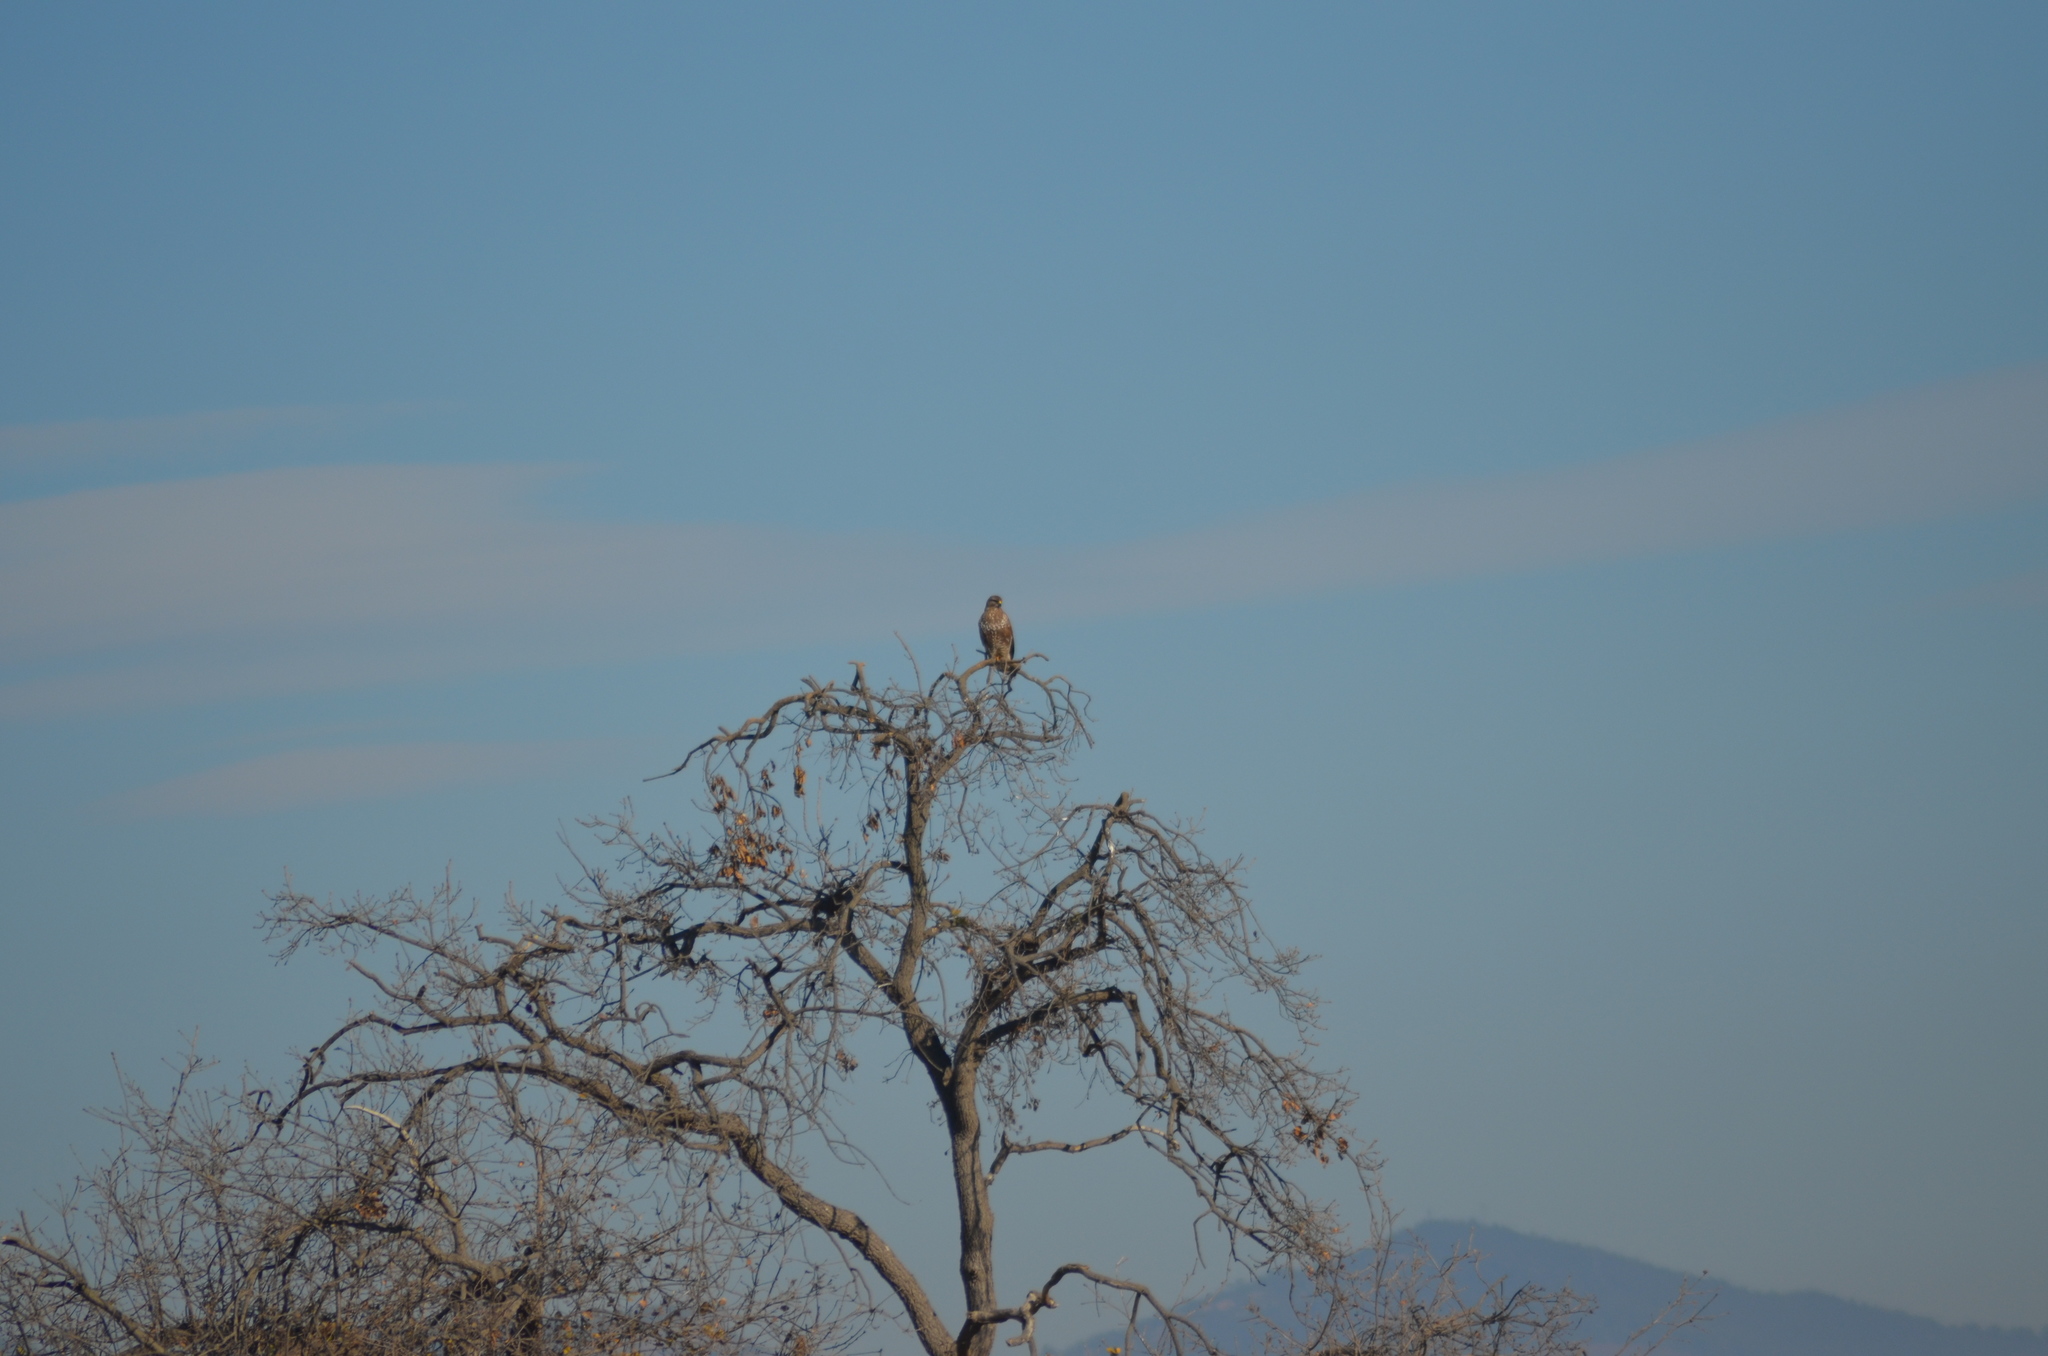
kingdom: Animalia
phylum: Chordata
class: Aves
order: Accipitriformes
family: Accipitridae
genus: Buteo
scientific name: Buteo buteo
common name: Common buzzard
